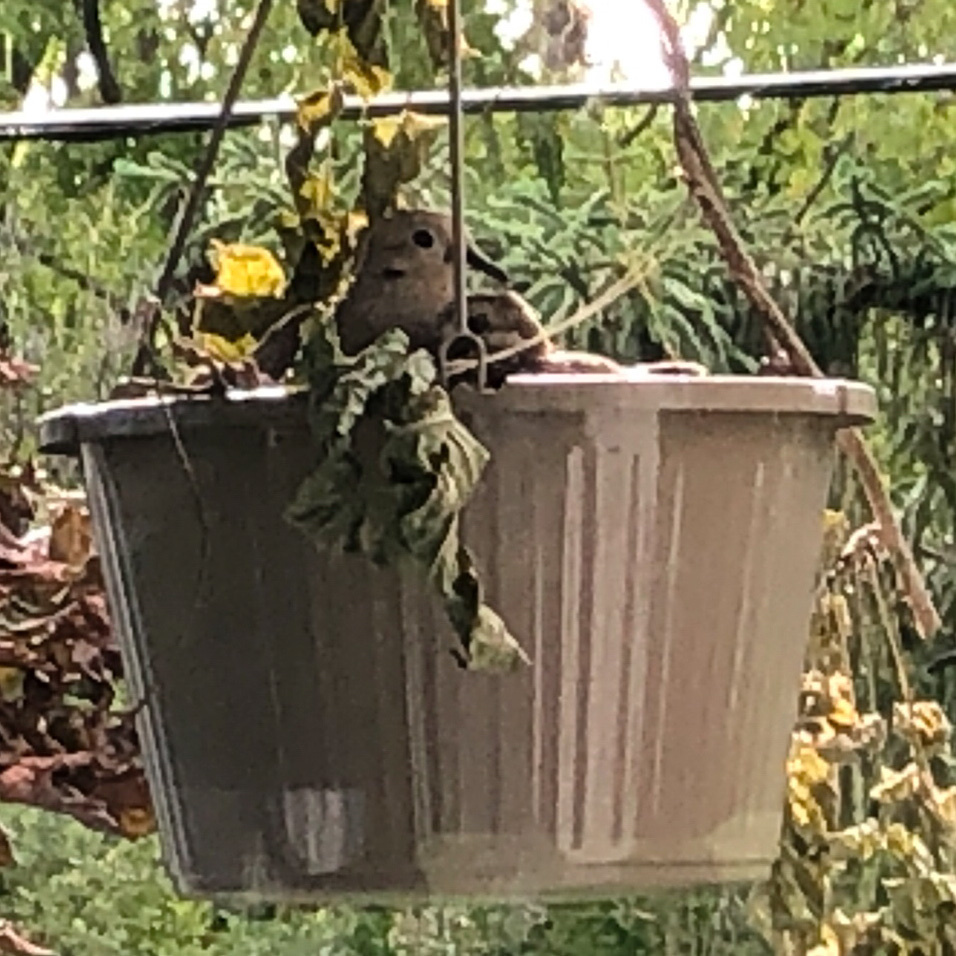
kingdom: Animalia
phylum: Chordata
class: Aves
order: Columbiformes
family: Columbidae
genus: Zenaida
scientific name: Zenaida macroura
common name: Mourning dove
